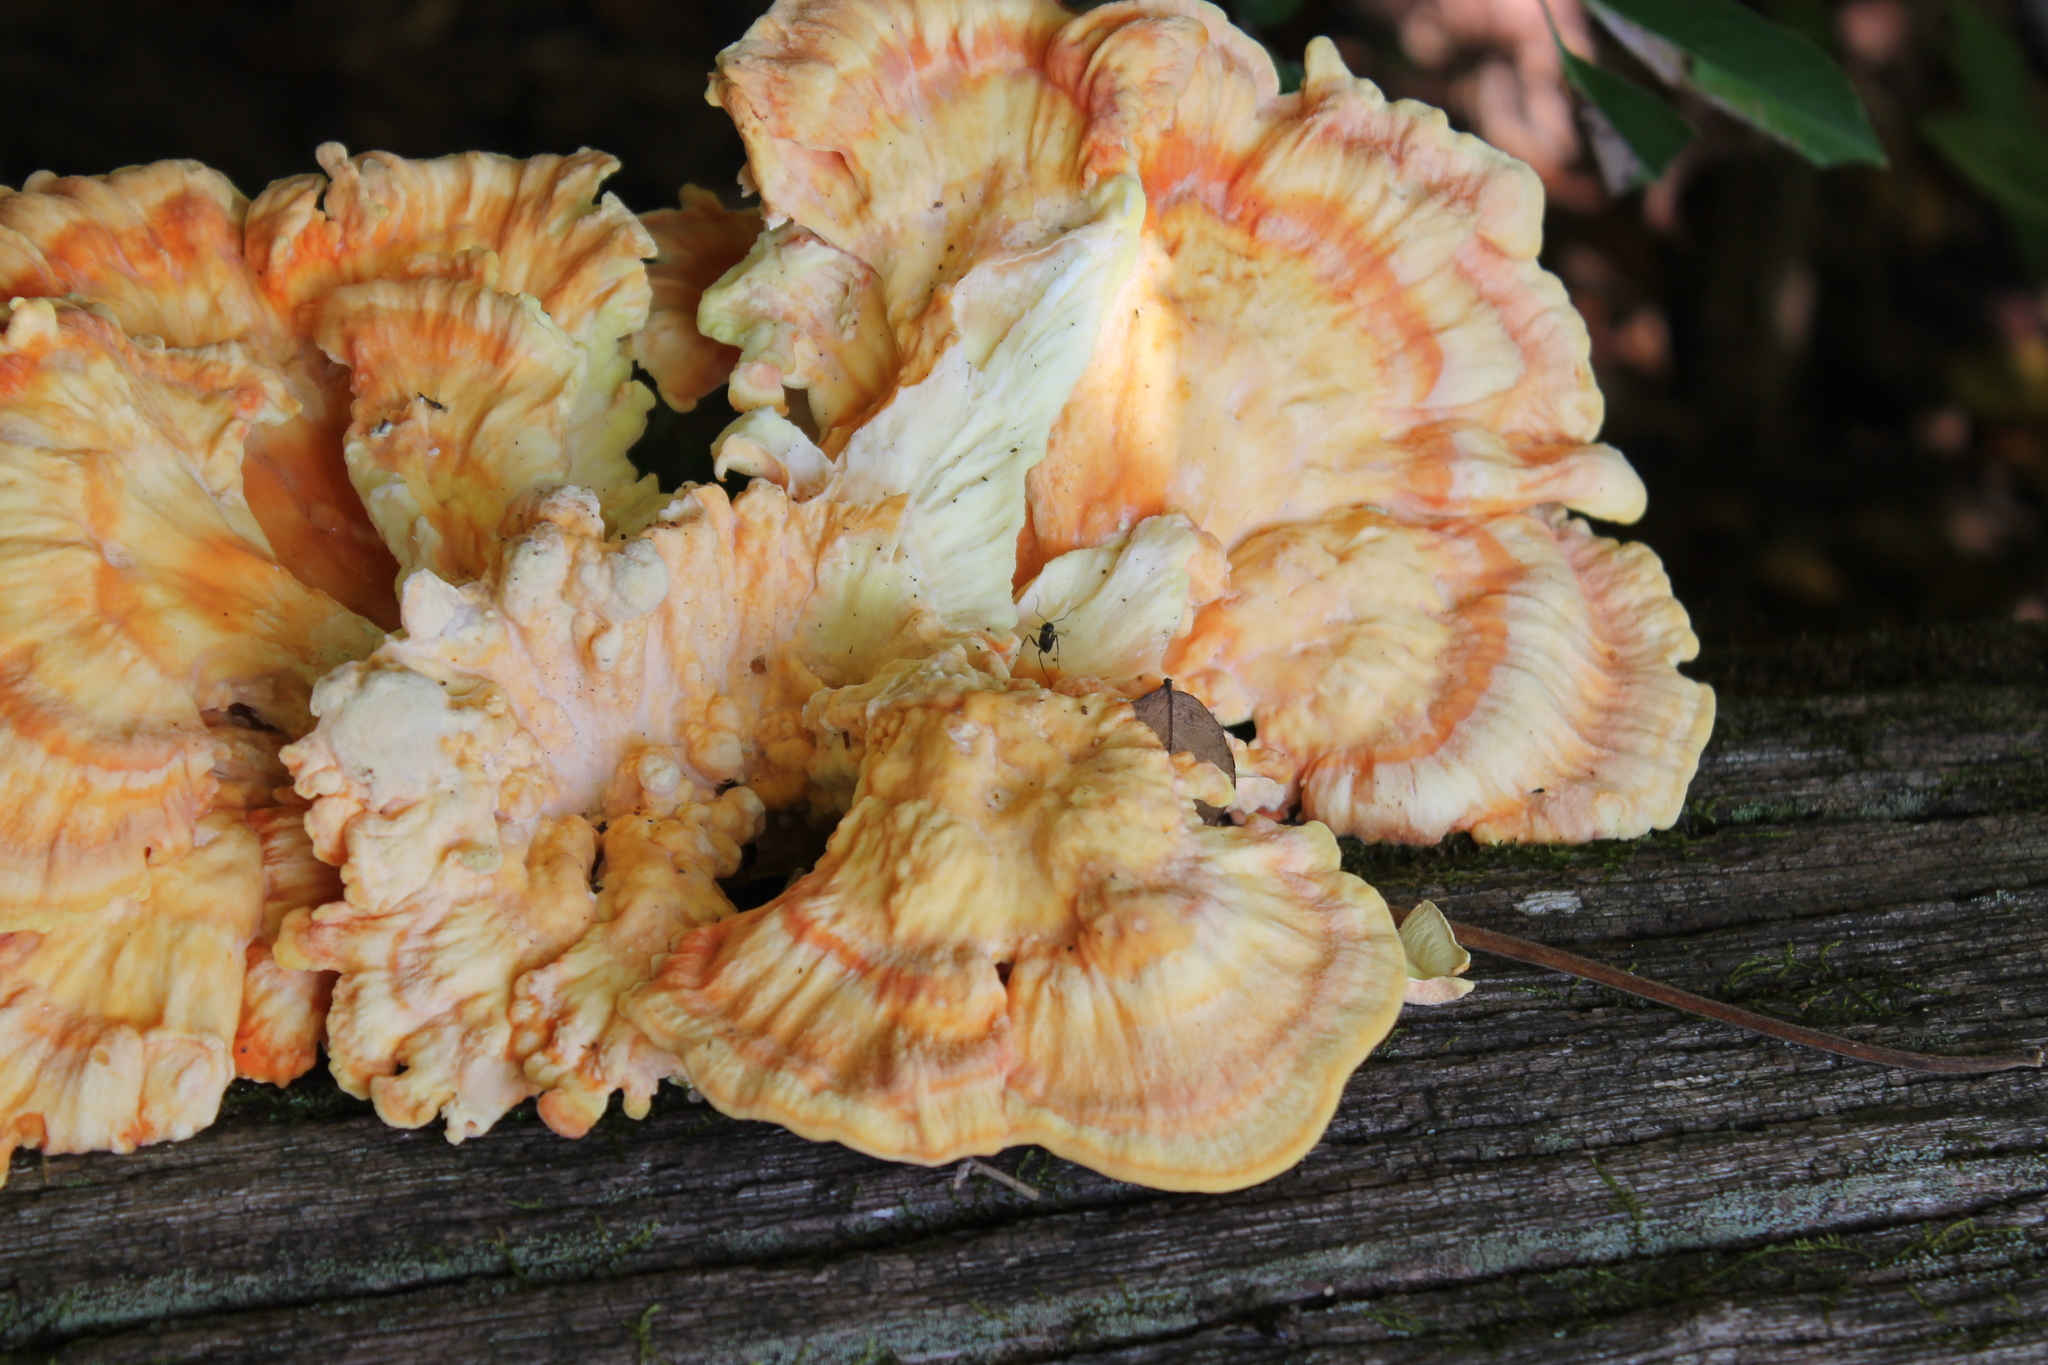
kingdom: Fungi
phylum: Basidiomycota
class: Agaricomycetes
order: Polyporales
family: Laetiporaceae
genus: Laetiporus
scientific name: Laetiporus sulphureus
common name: Chicken of the woods
